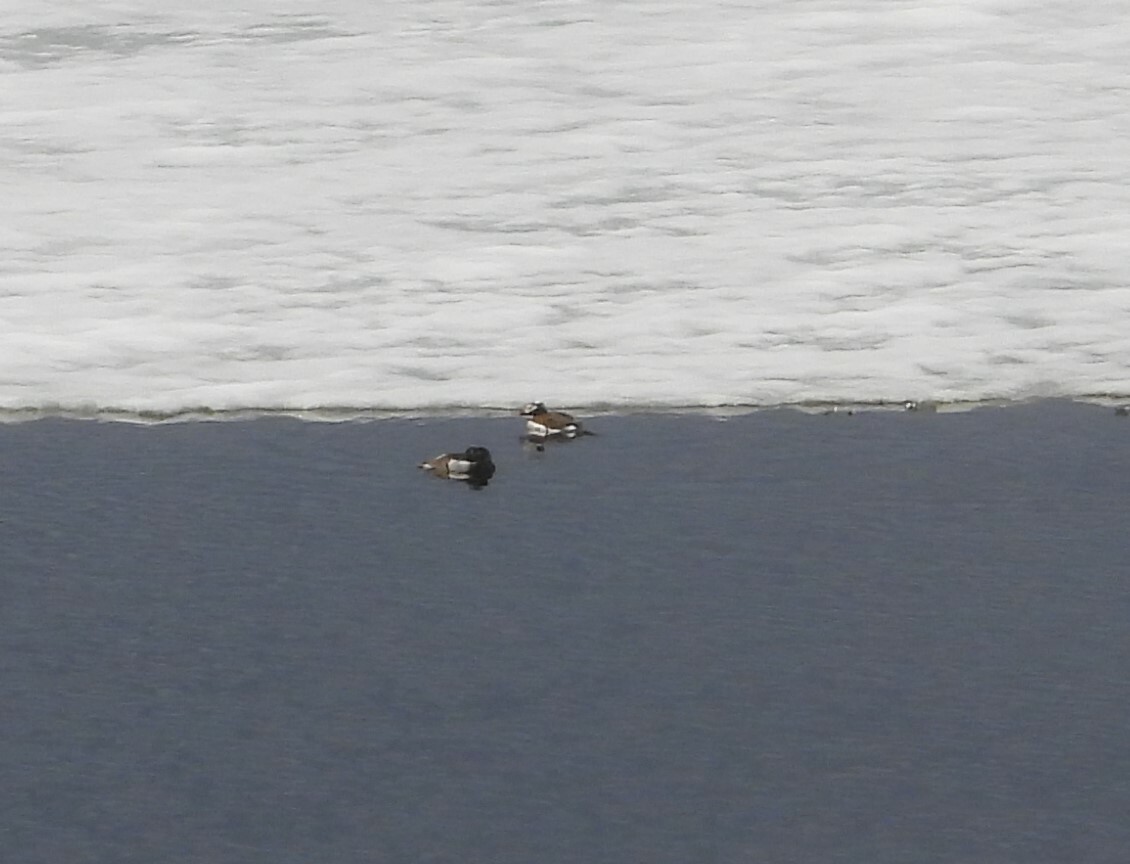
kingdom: Animalia
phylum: Chordata
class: Aves
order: Anseriformes
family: Anatidae
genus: Clangula
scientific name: Clangula hyemalis
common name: Long-tailed duck
